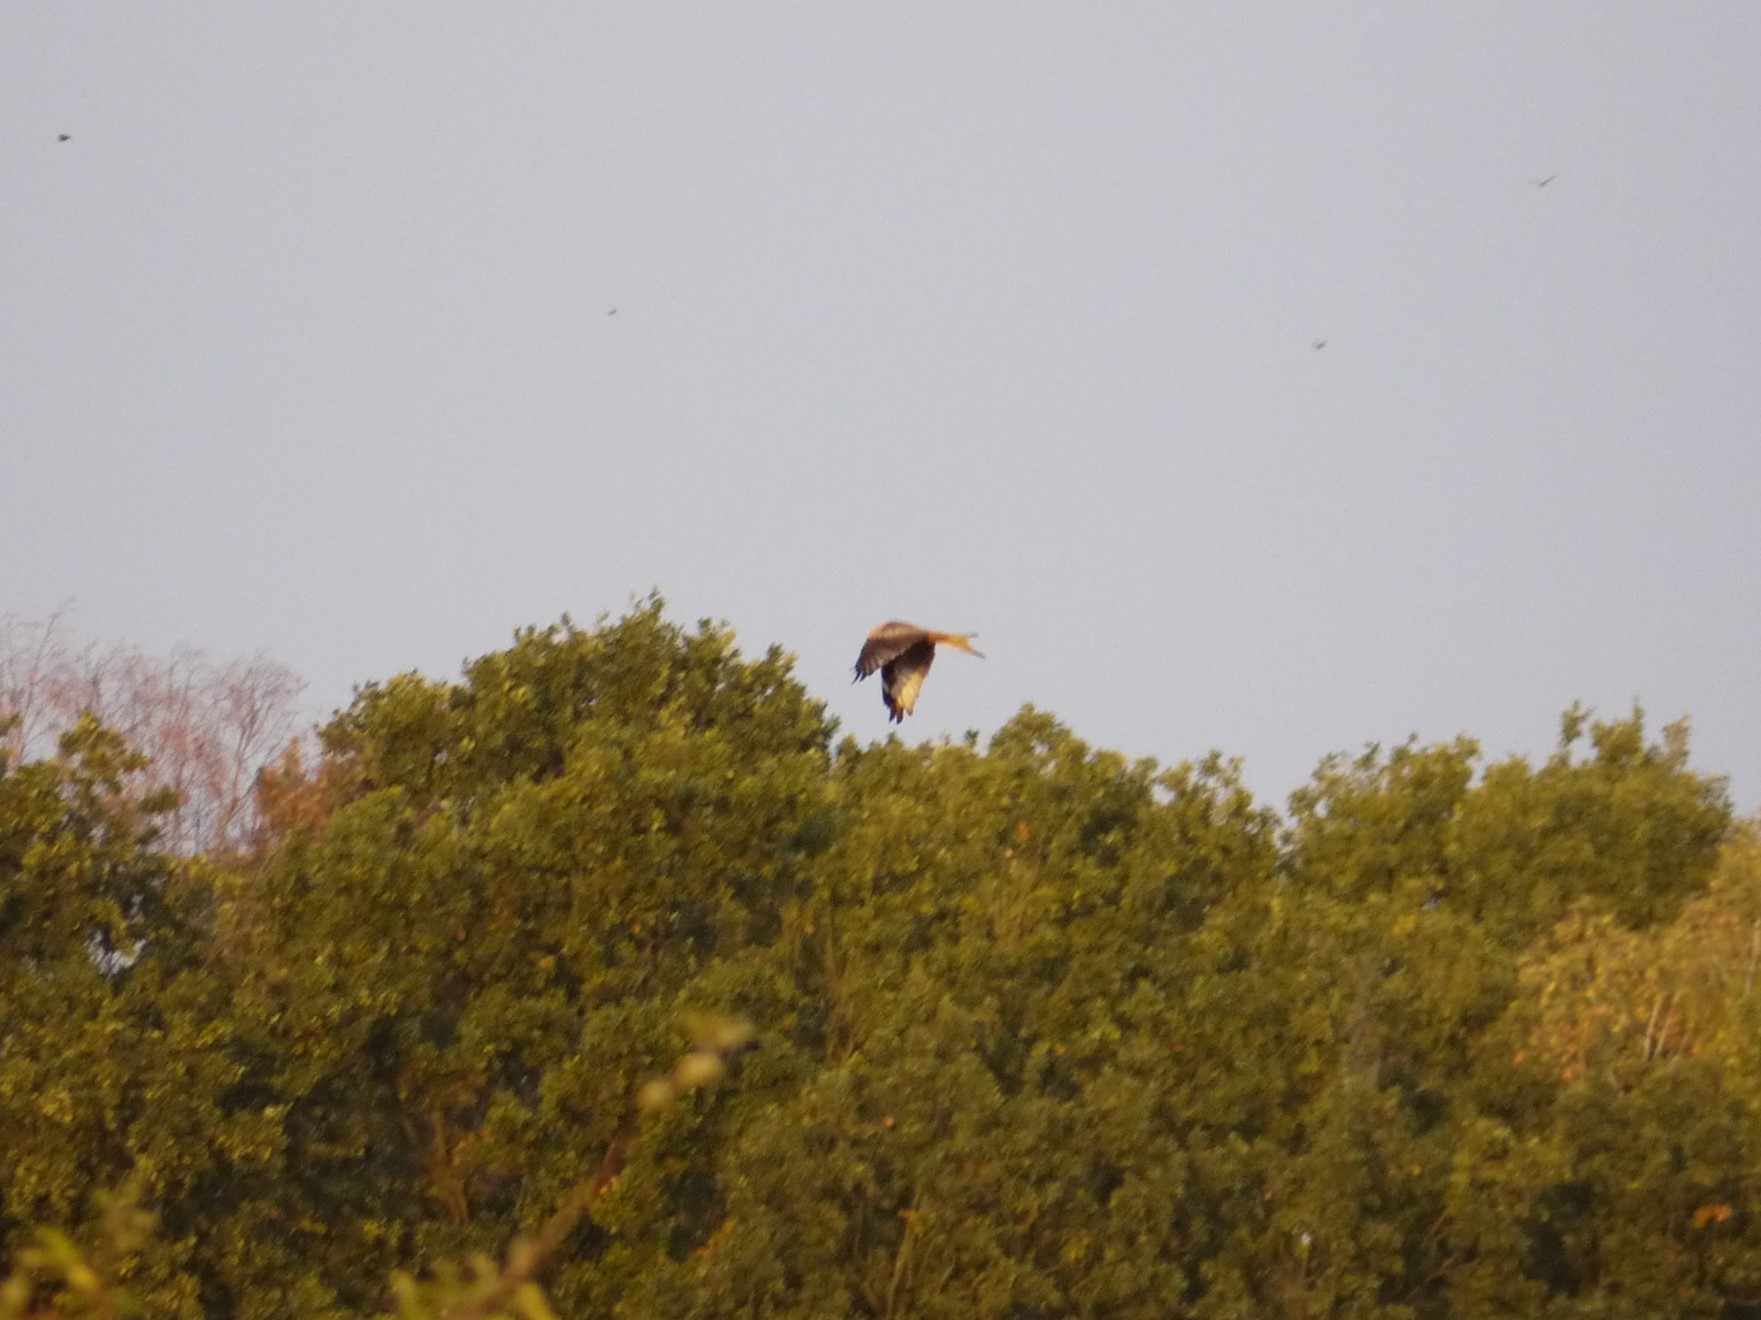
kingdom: Animalia
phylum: Chordata
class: Aves
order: Accipitriformes
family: Accipitridae
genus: Milvus
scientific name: Milvus milvus
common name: Red kite
